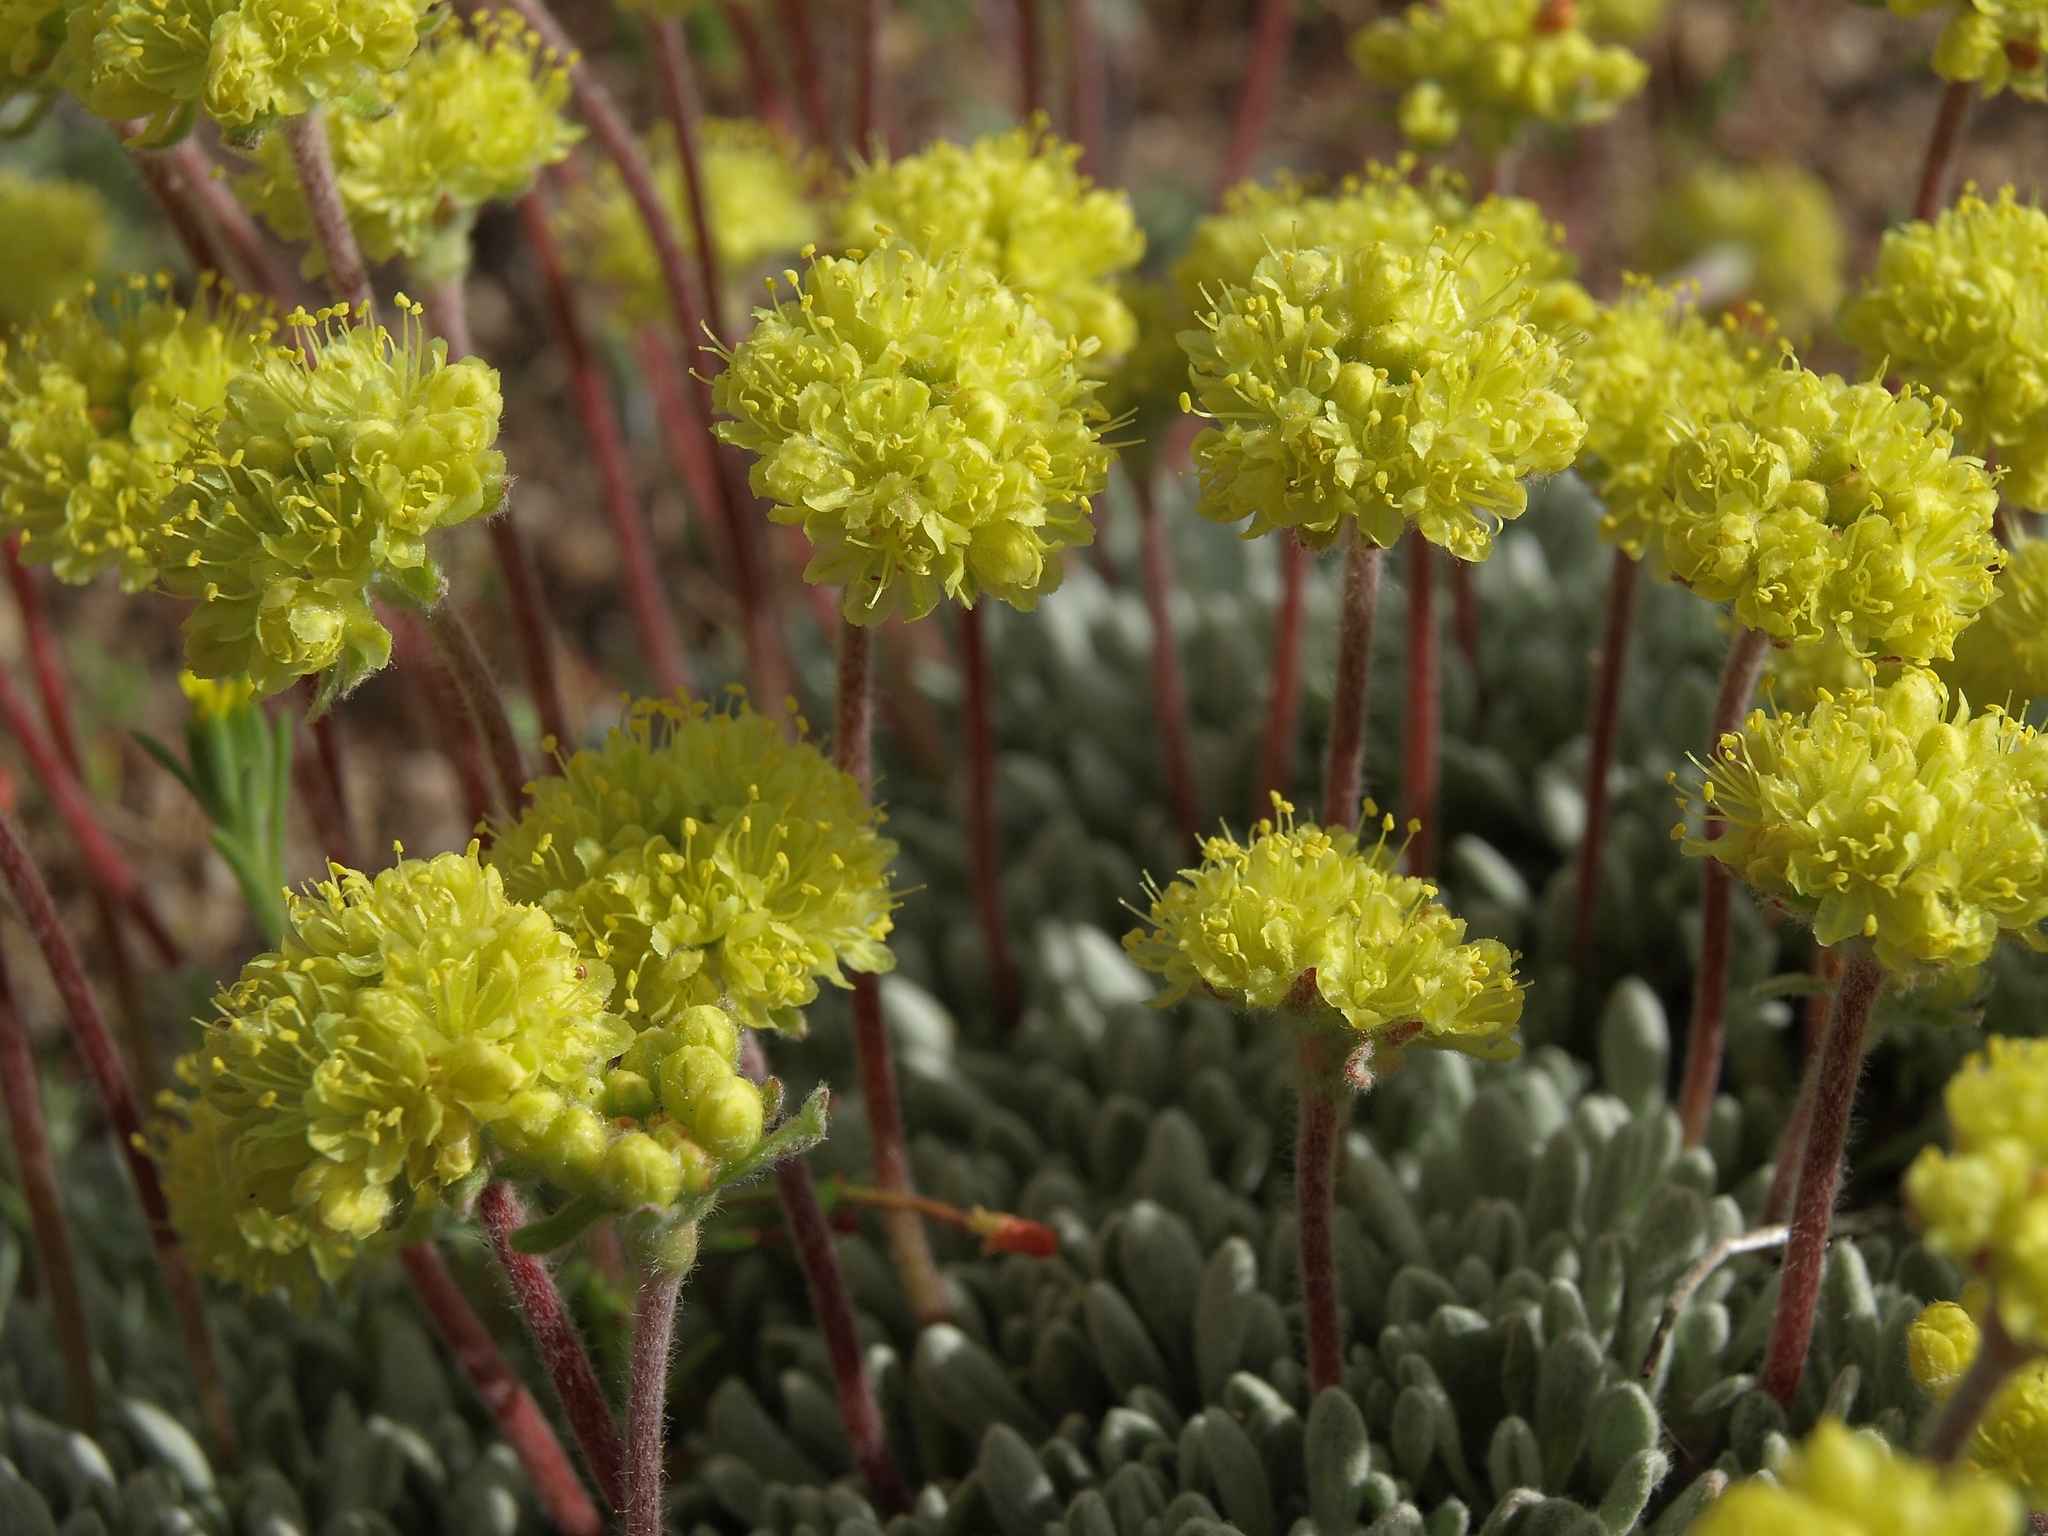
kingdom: Plantae
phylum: Tracheophyta
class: Magnoliopsida
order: Caryophyllales
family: Polygonaceae
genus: Eriogonum
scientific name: Eriogonum caespitosum
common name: Matted wild buckwheat
